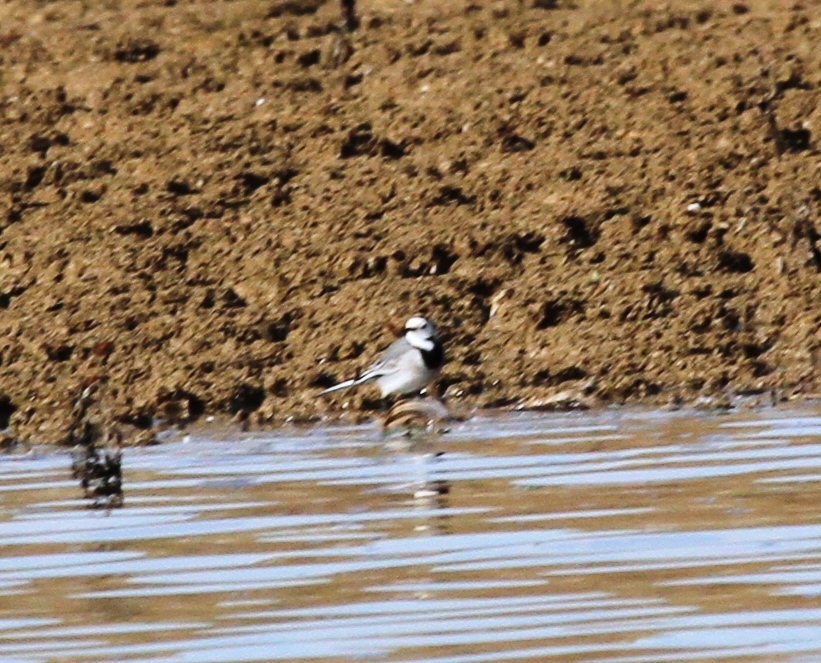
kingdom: Animalia
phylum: Chordata
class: Aves
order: Passeriformes
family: Motacillidae
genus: Motacilla
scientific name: Motacilla alba
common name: White wagtail
